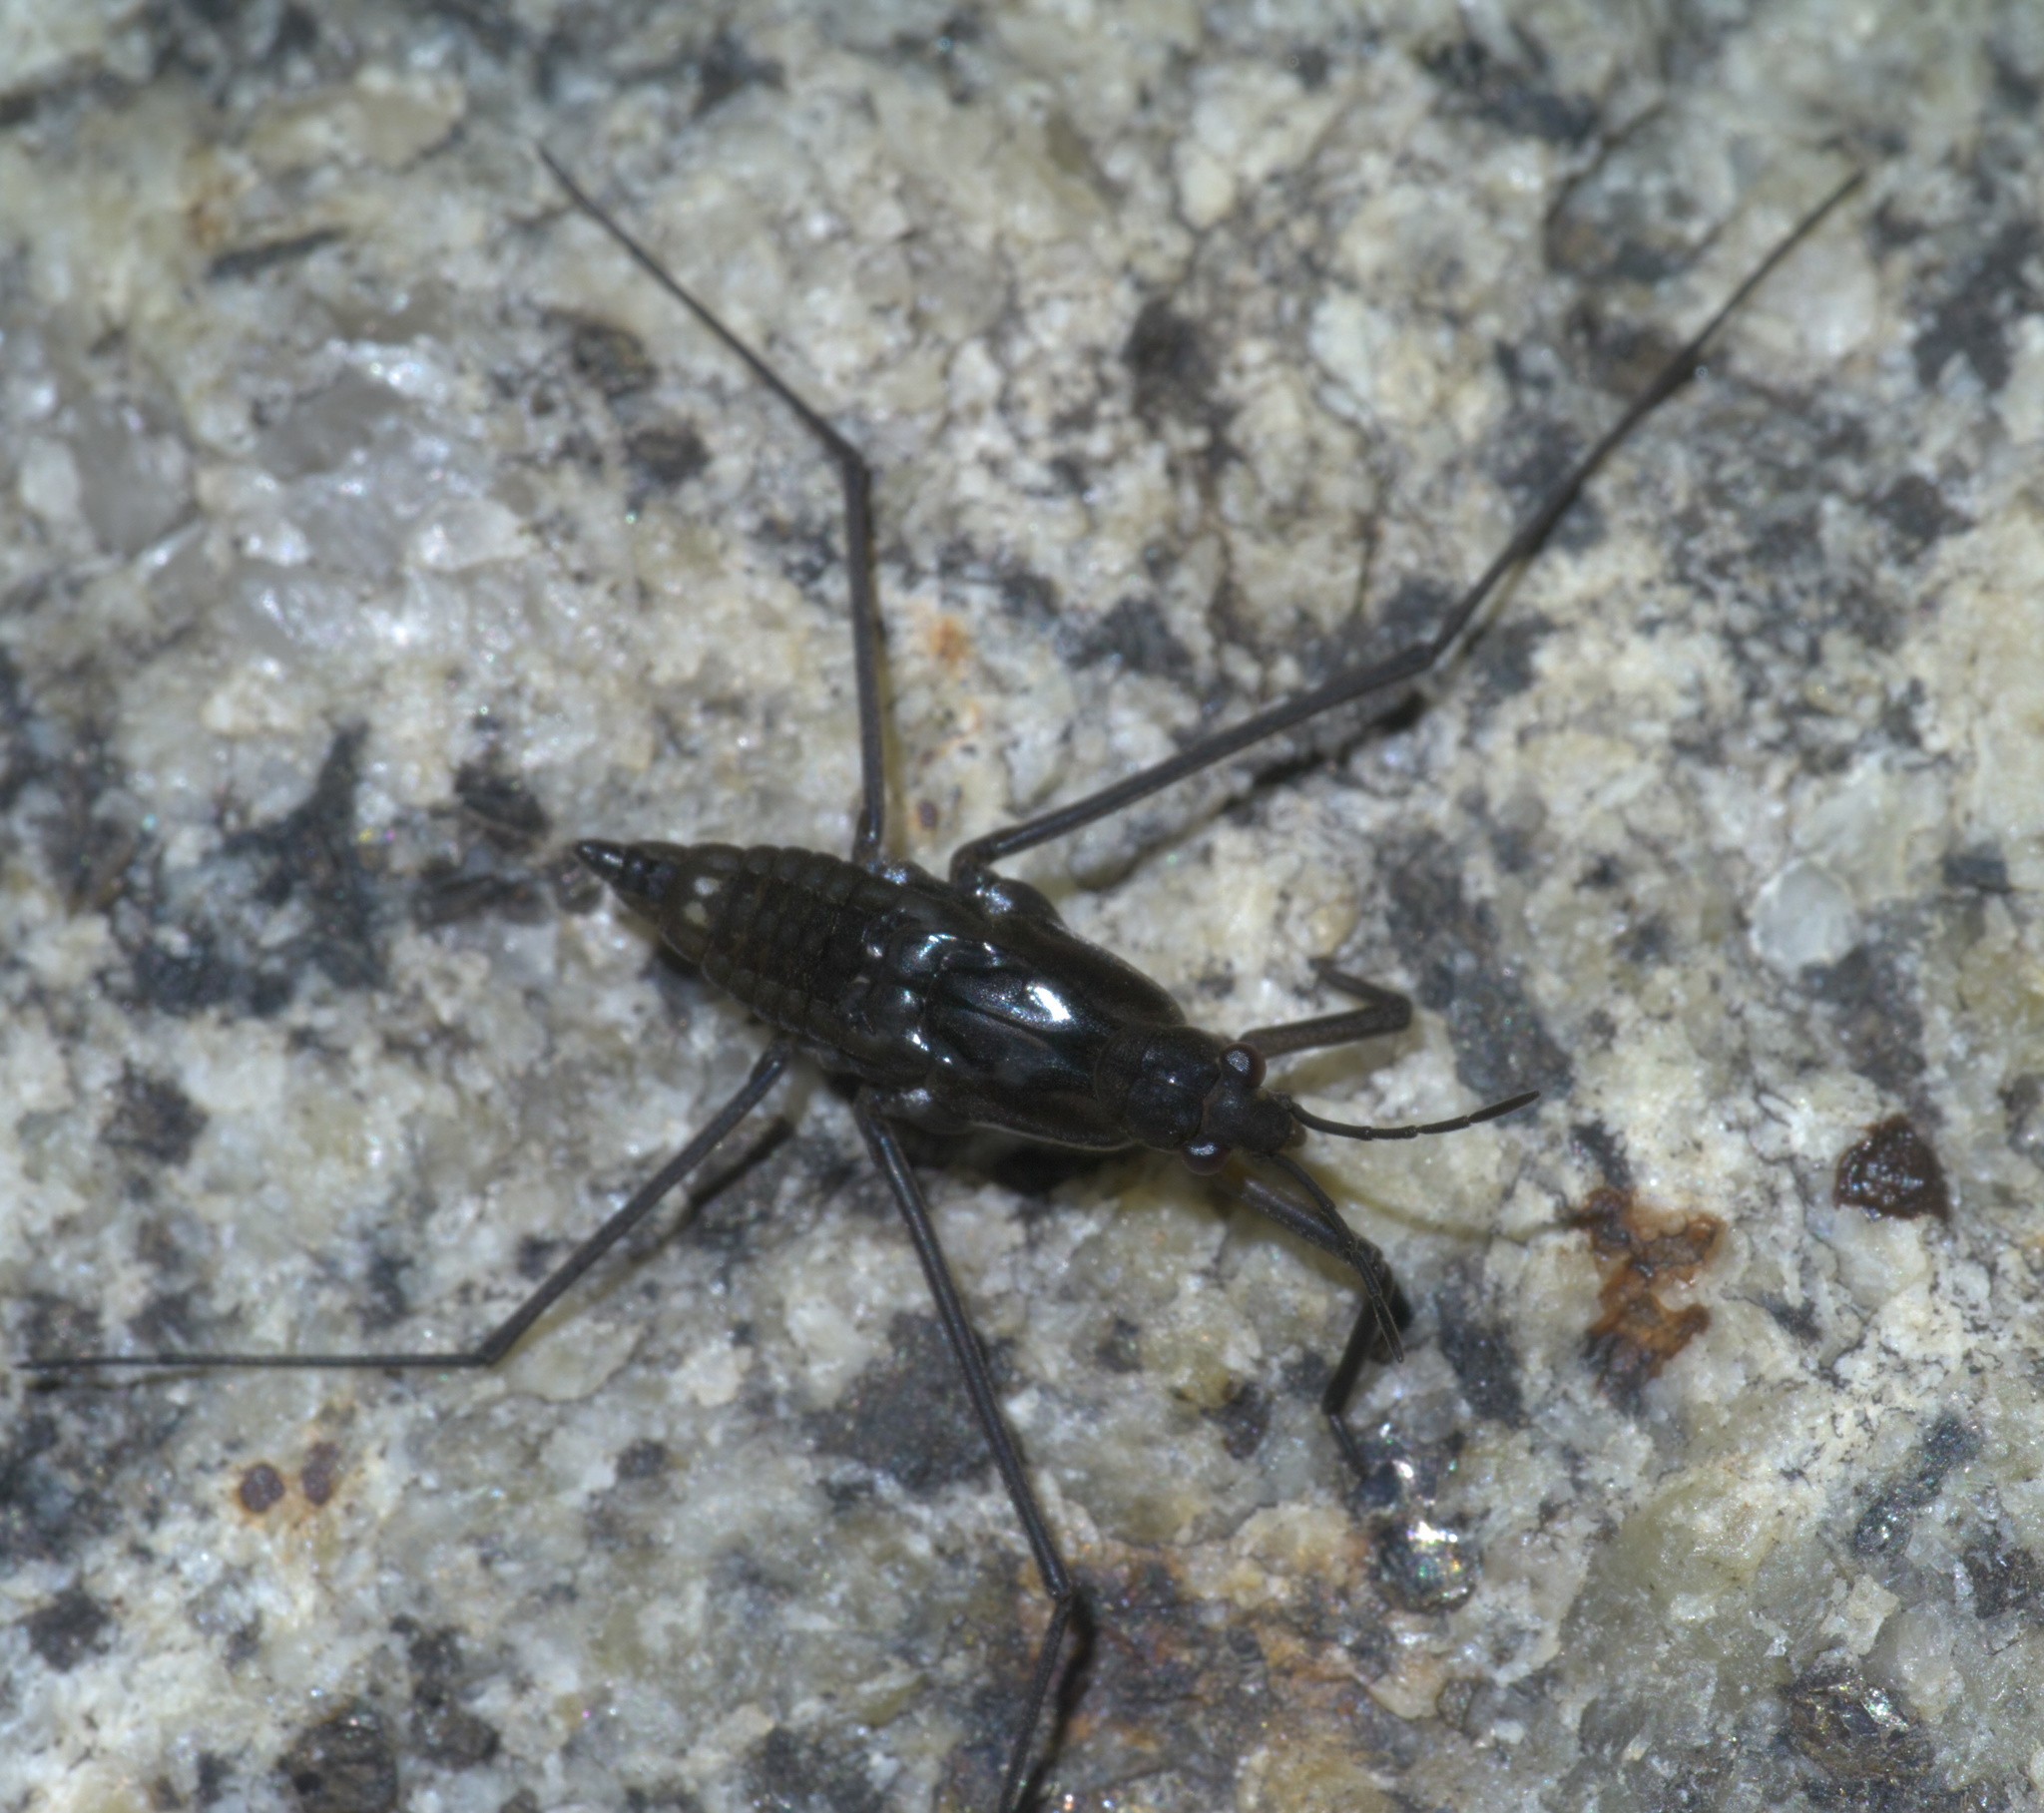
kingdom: Animalia
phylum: Arthropoda
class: Insecta
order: Hemiptera
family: Gerridae
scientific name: Gerridae
